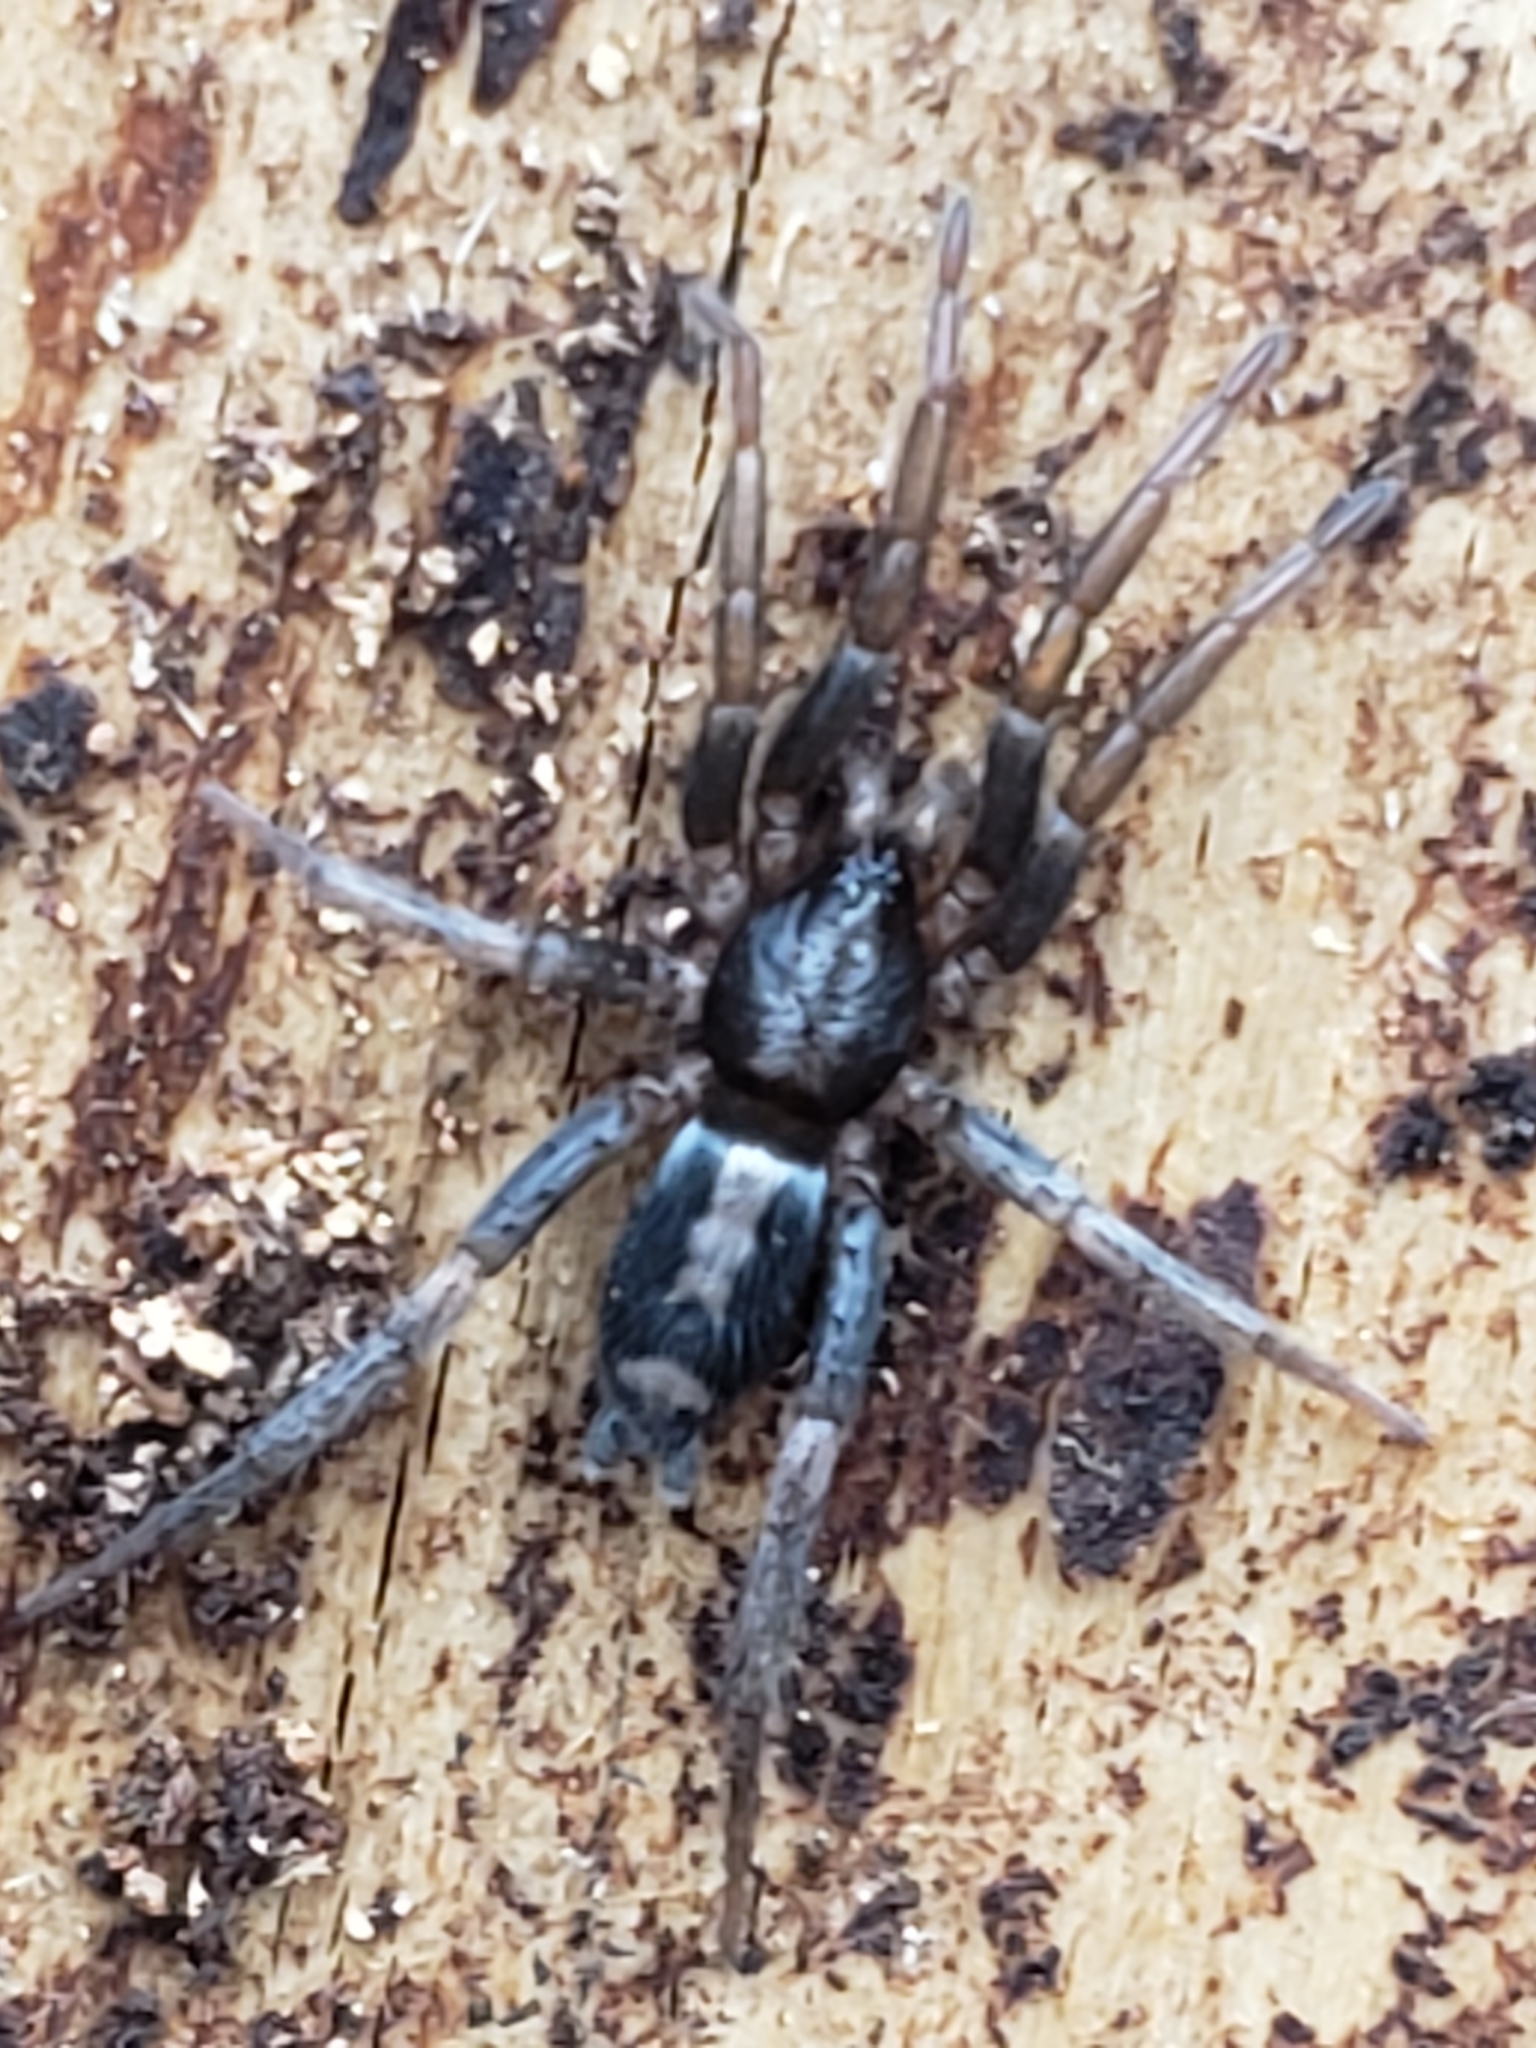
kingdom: Animalia
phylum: Arthropoda
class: Arachnida
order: Araneae
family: Gnaphosidae
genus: Herpyllus
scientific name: Herpyllus ecclesiasticus
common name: Eastern parson spider
